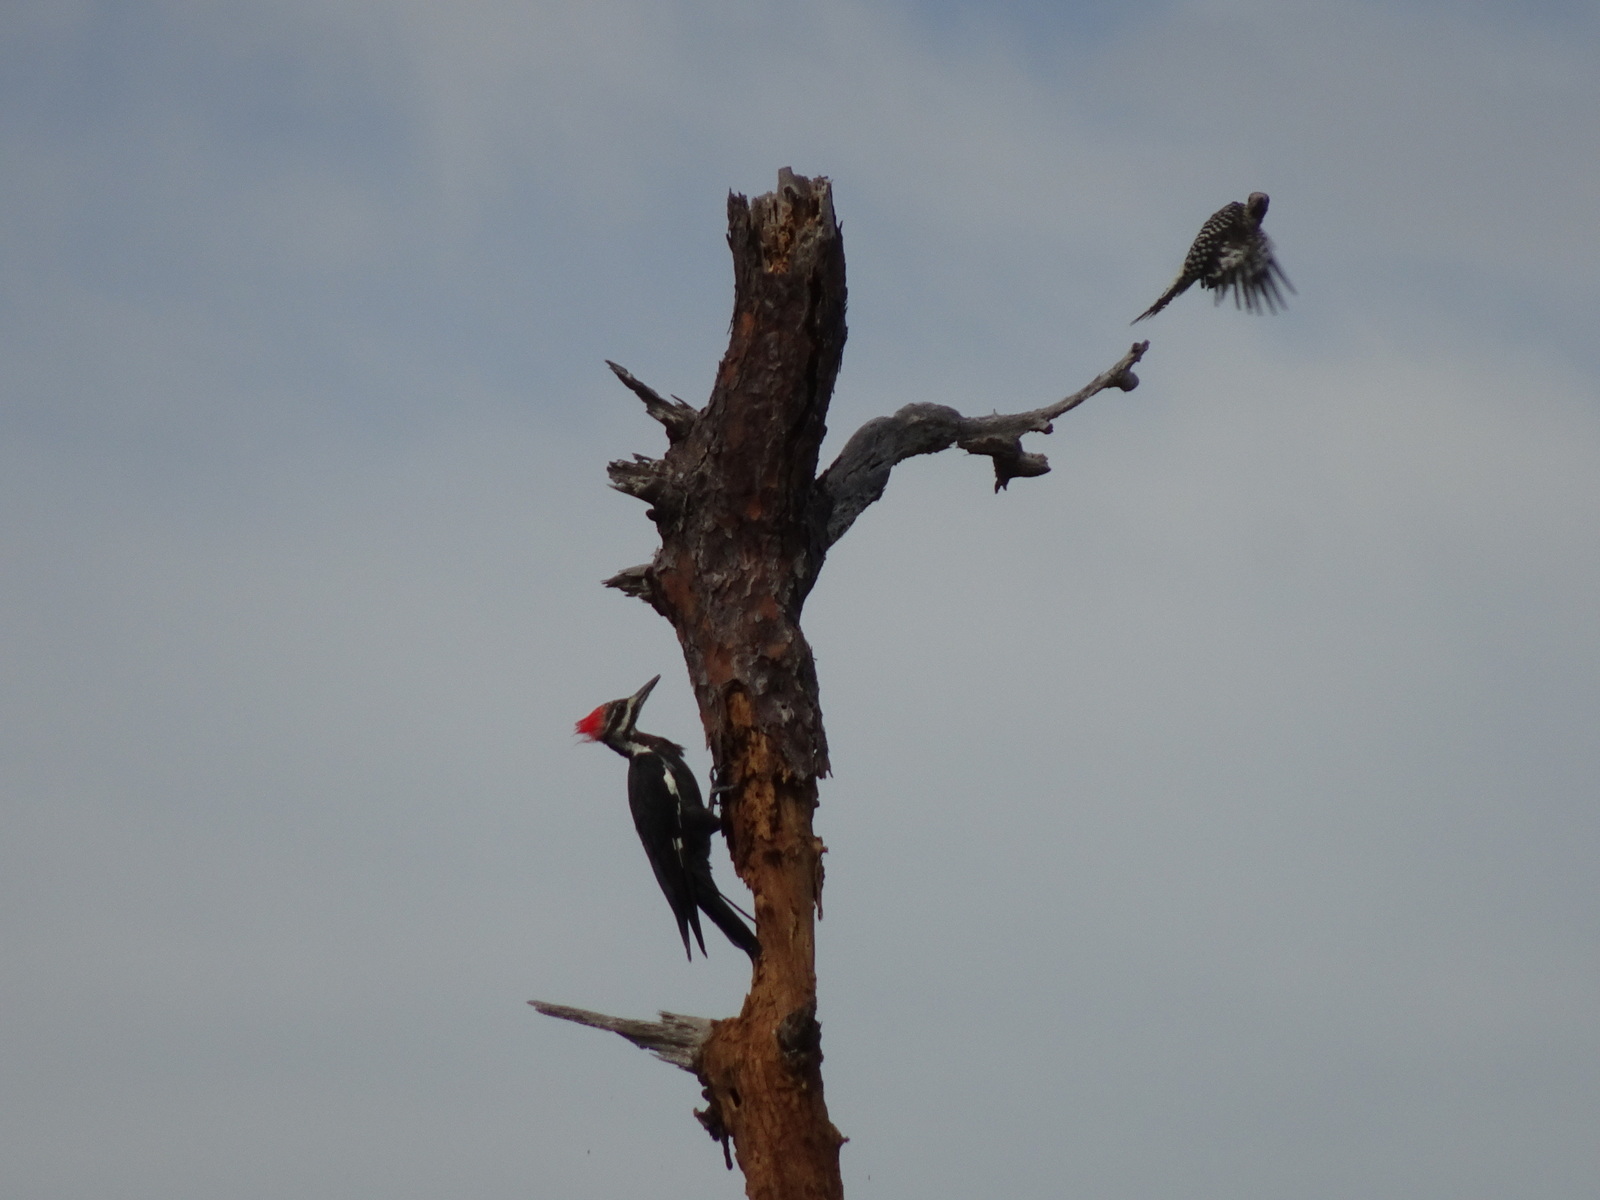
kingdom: Animalia
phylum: Chordata
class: Aves
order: Piciformes
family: Picidae
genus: Dryocopus
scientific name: Dryocopus pileatus
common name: Pileated woodpecker
